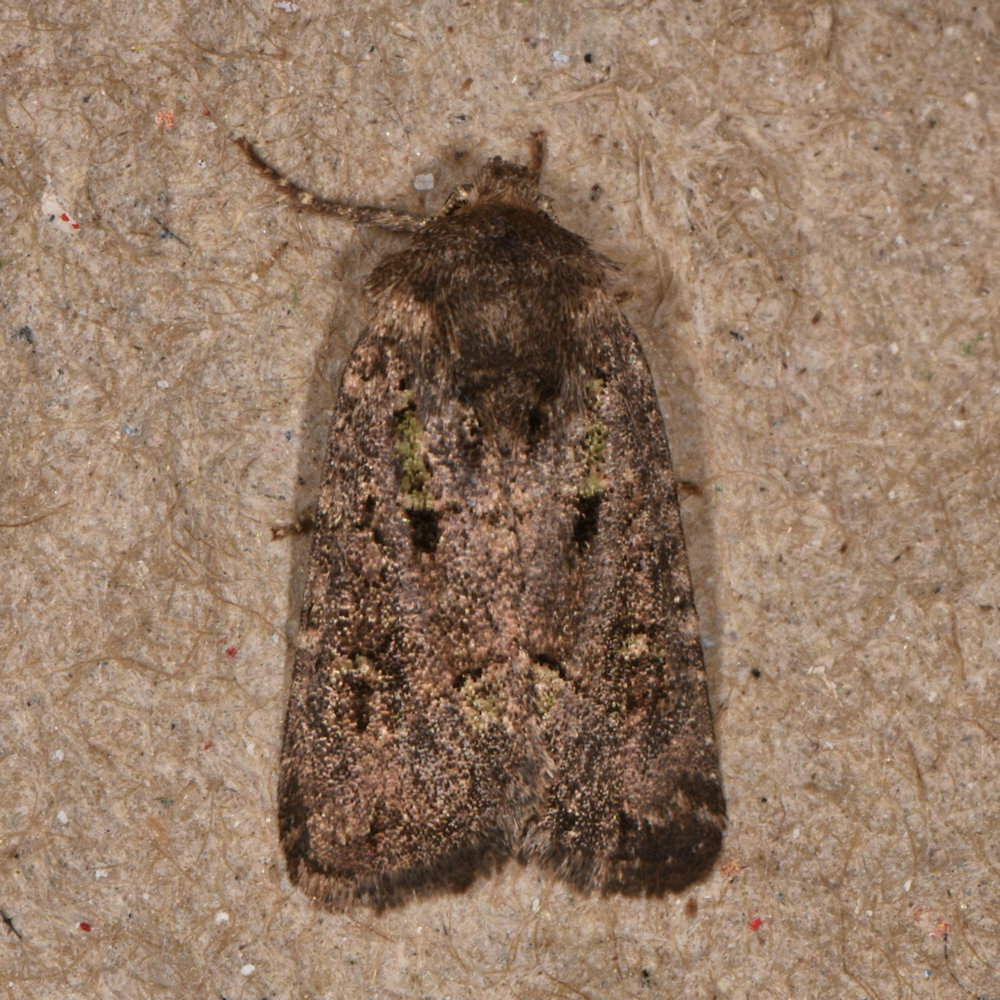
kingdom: Animalia
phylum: Arthropoda
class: Insecta
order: Lepidoptera
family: Noctuidae
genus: Lacinipolia
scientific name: Lacinipolia renigera
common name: Kidney-spotted minor
